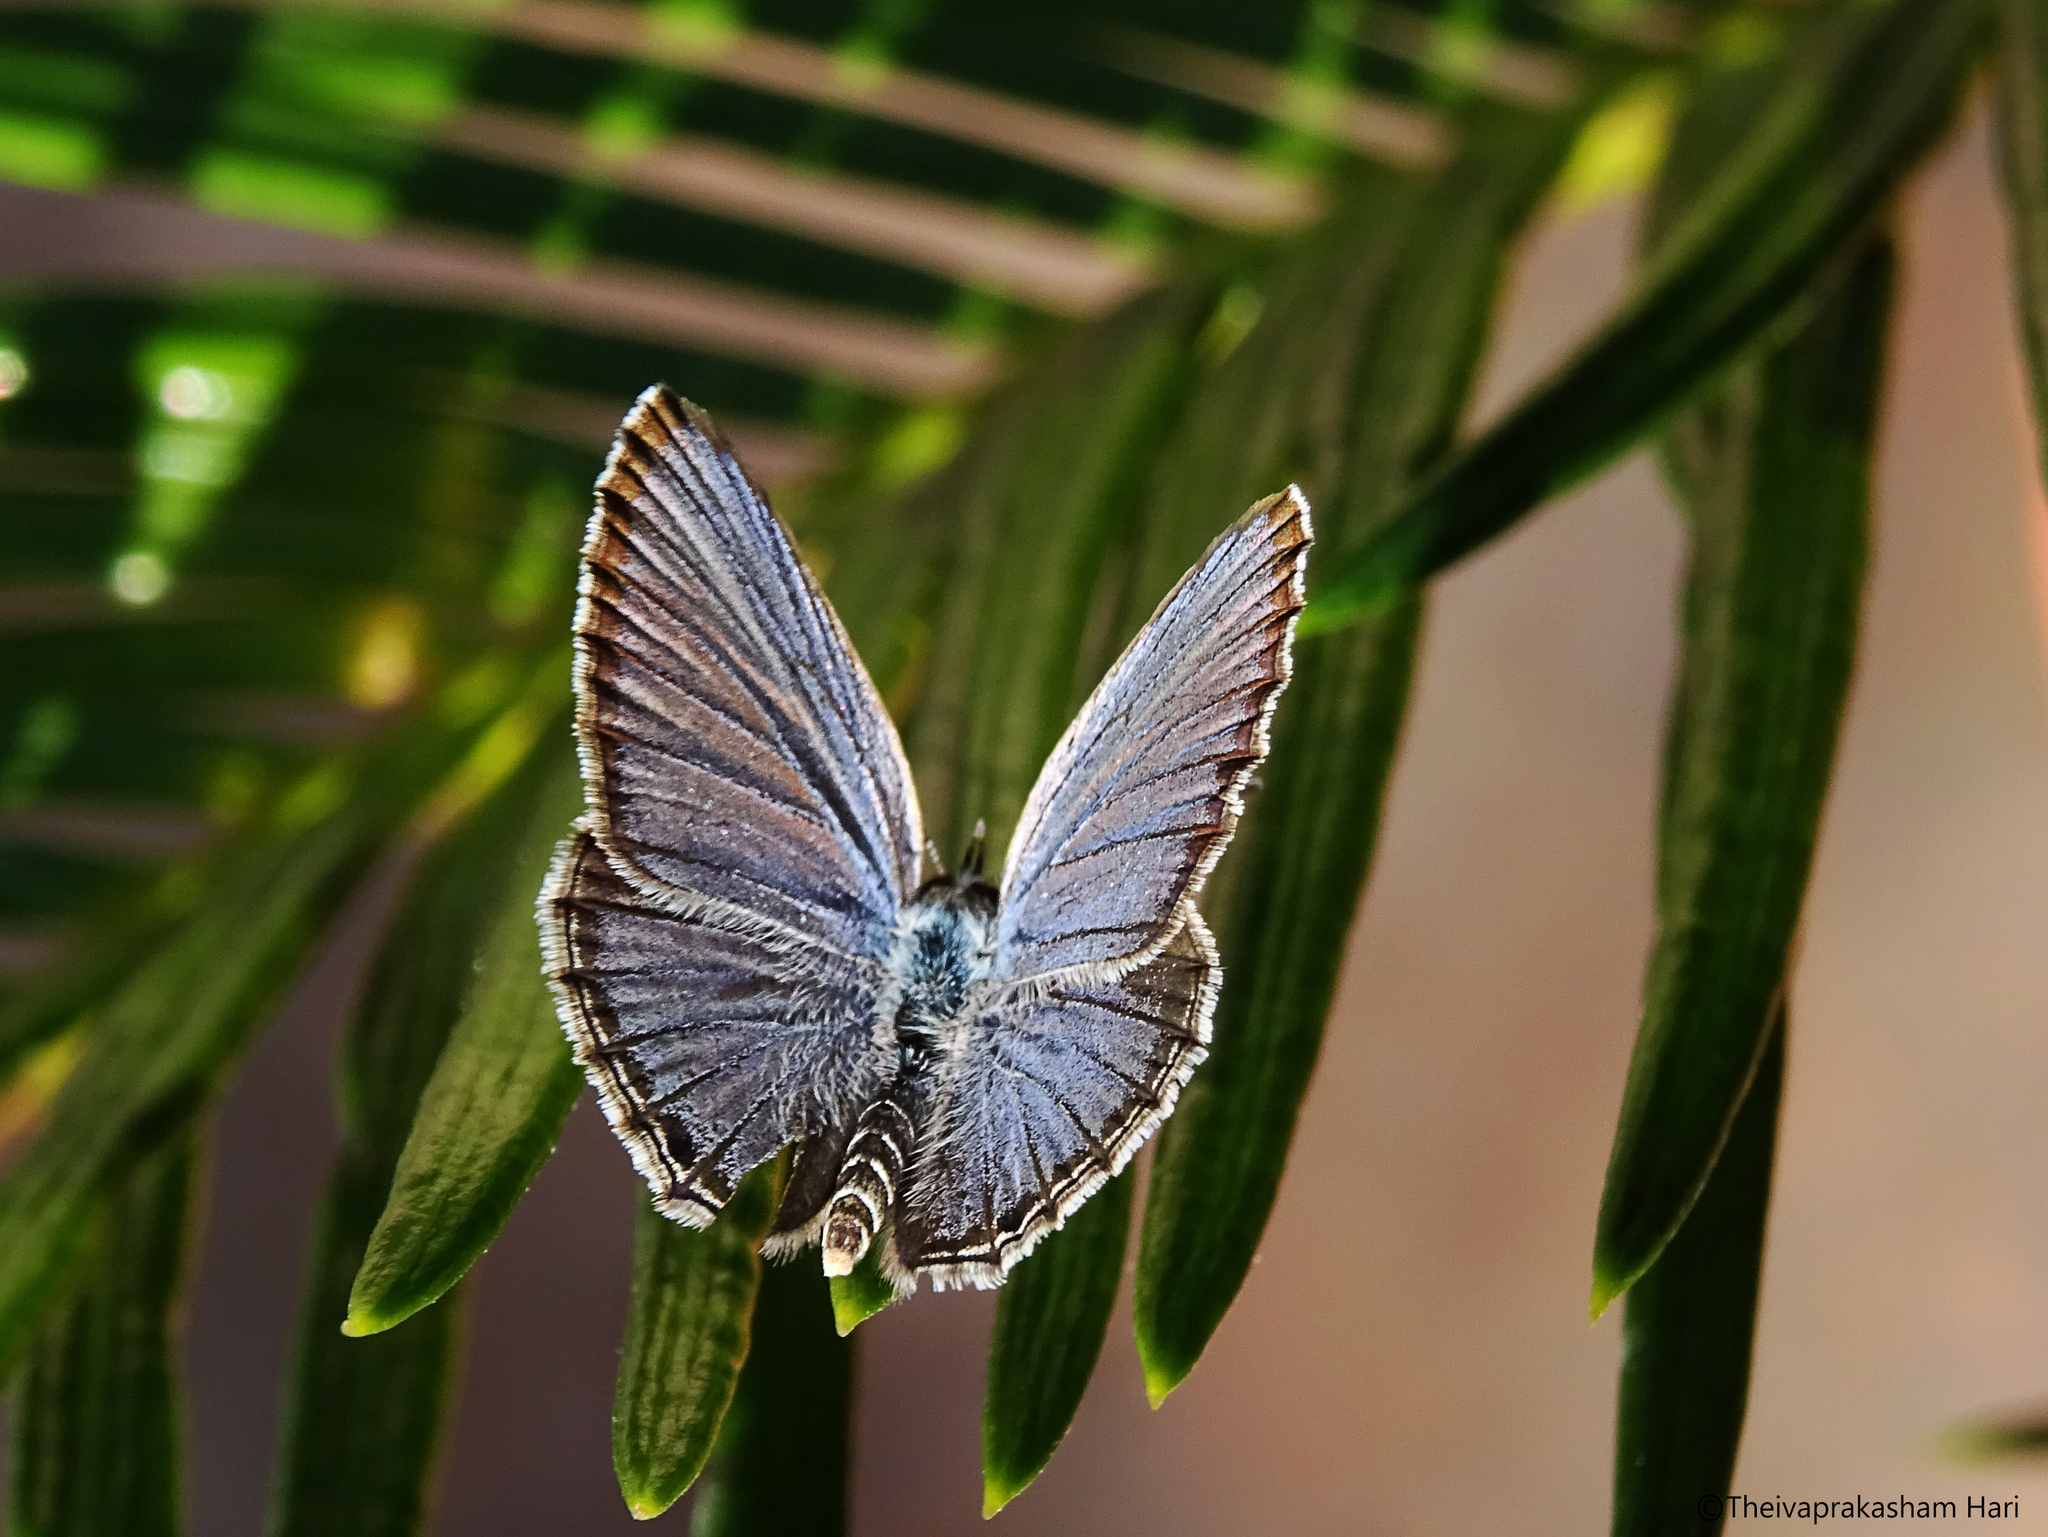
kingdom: Animalia
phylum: Arthropoda
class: Insecta
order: Lepidoptera
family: Lycaenidae
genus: Luthrodes
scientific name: Luthrodes pandava
